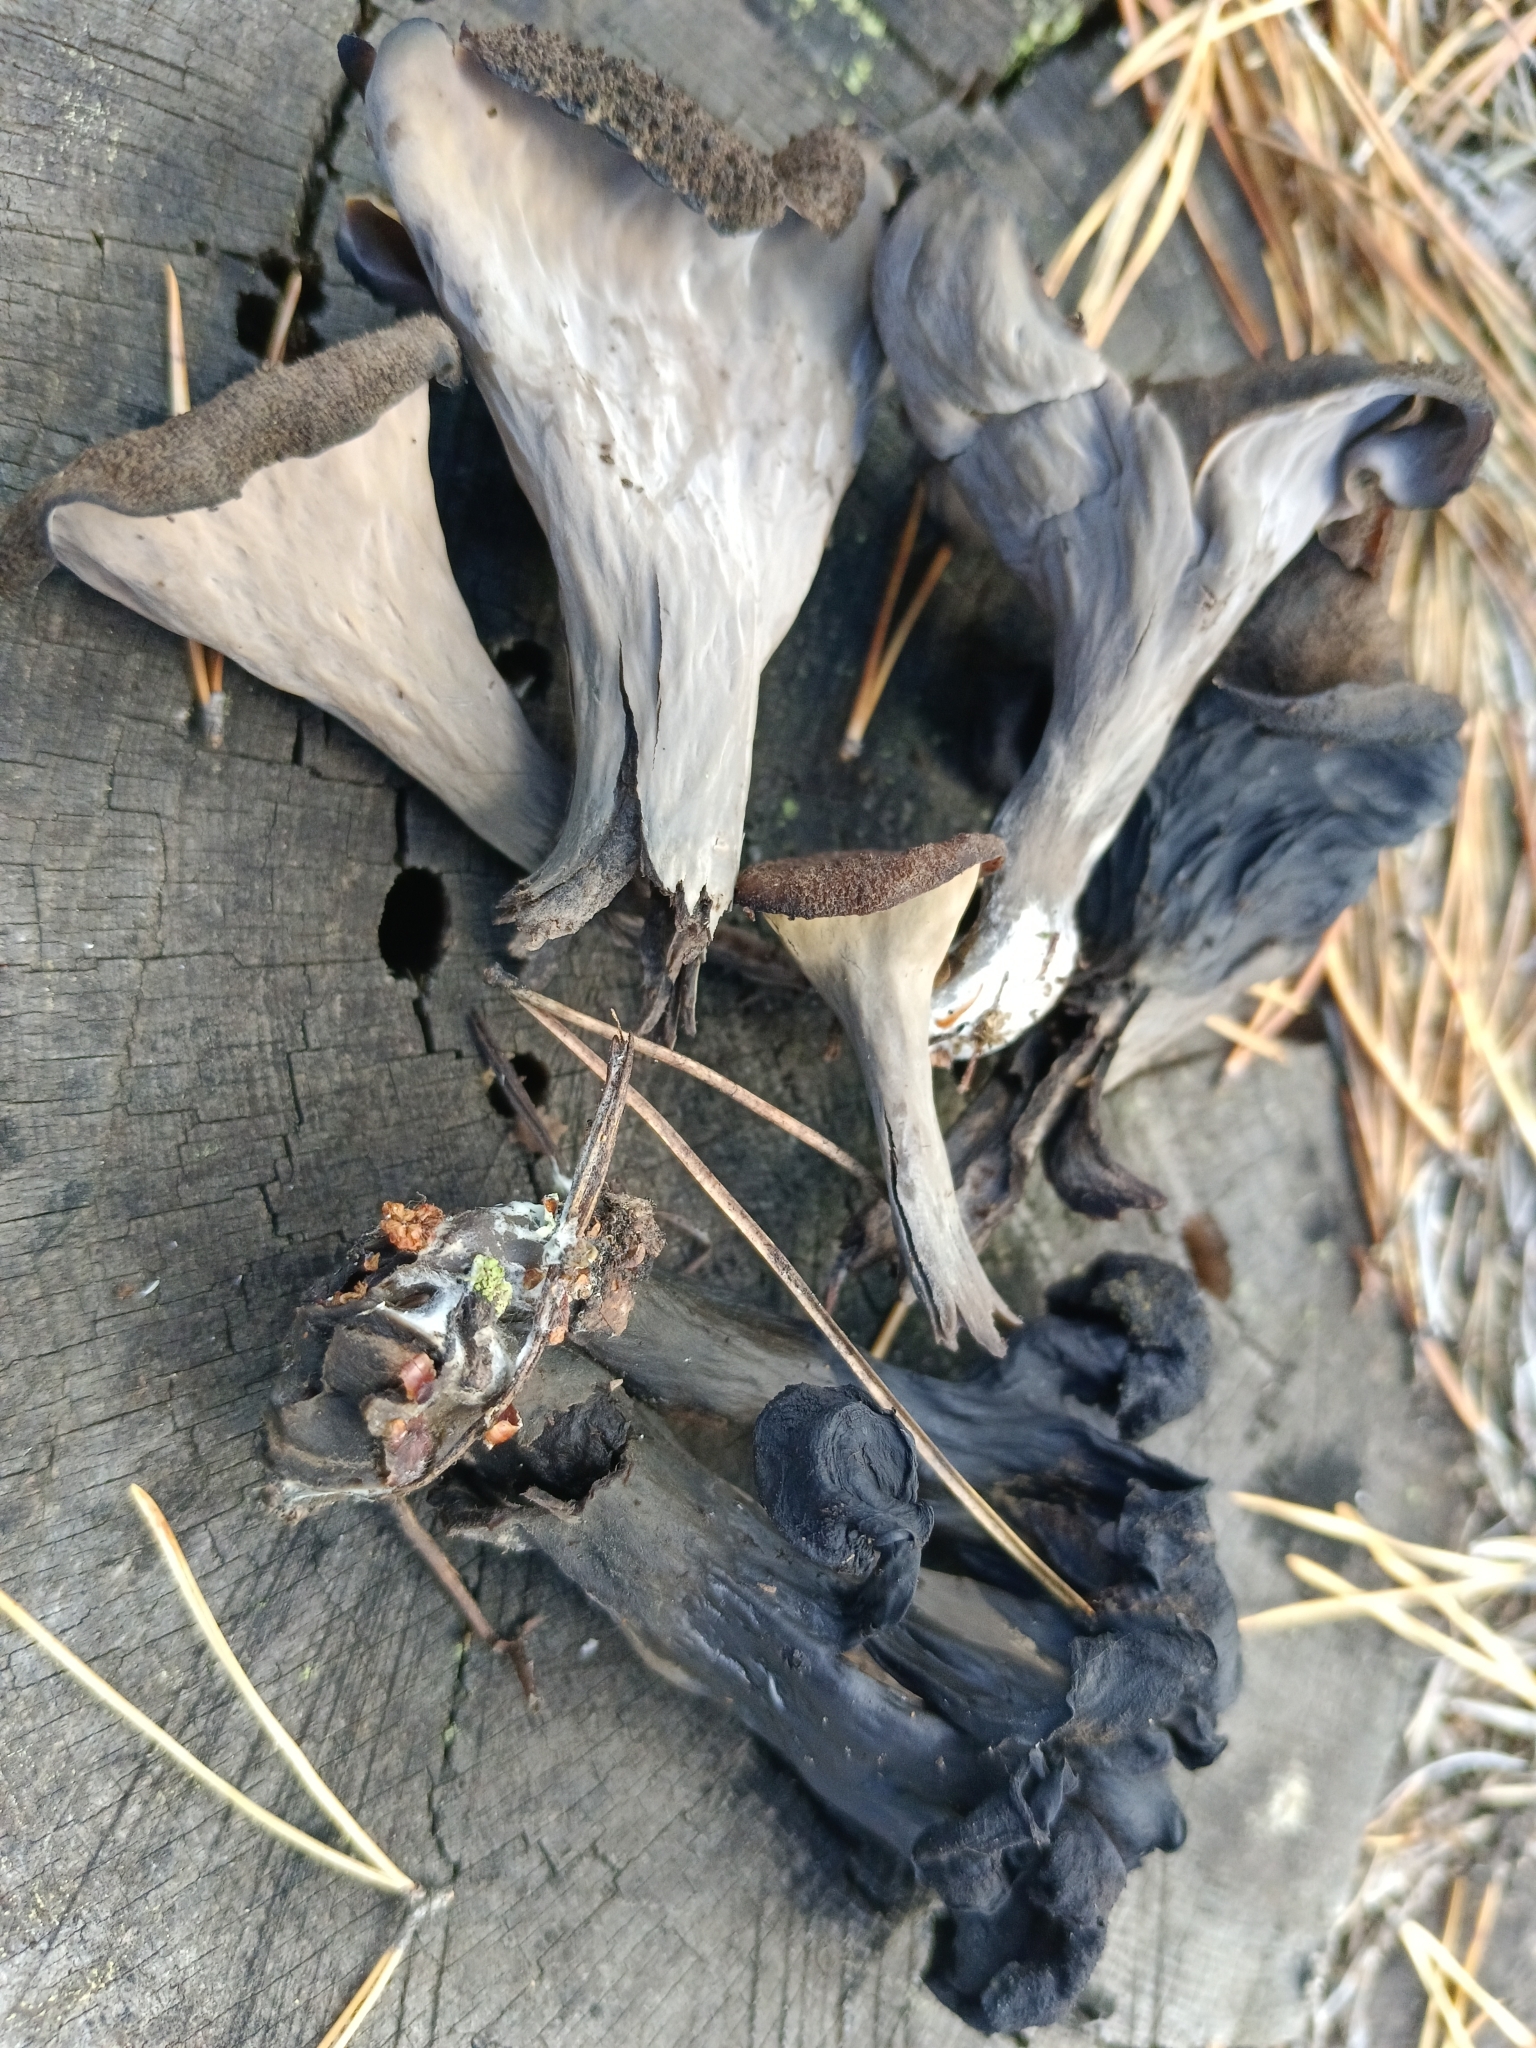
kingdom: Fungi
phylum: Basidiomycota
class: Agaricomycetes
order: Cantharellales
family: Hydnaceae
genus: Craterellus
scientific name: Craterellus cornucopioides
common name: Horn of plenty
